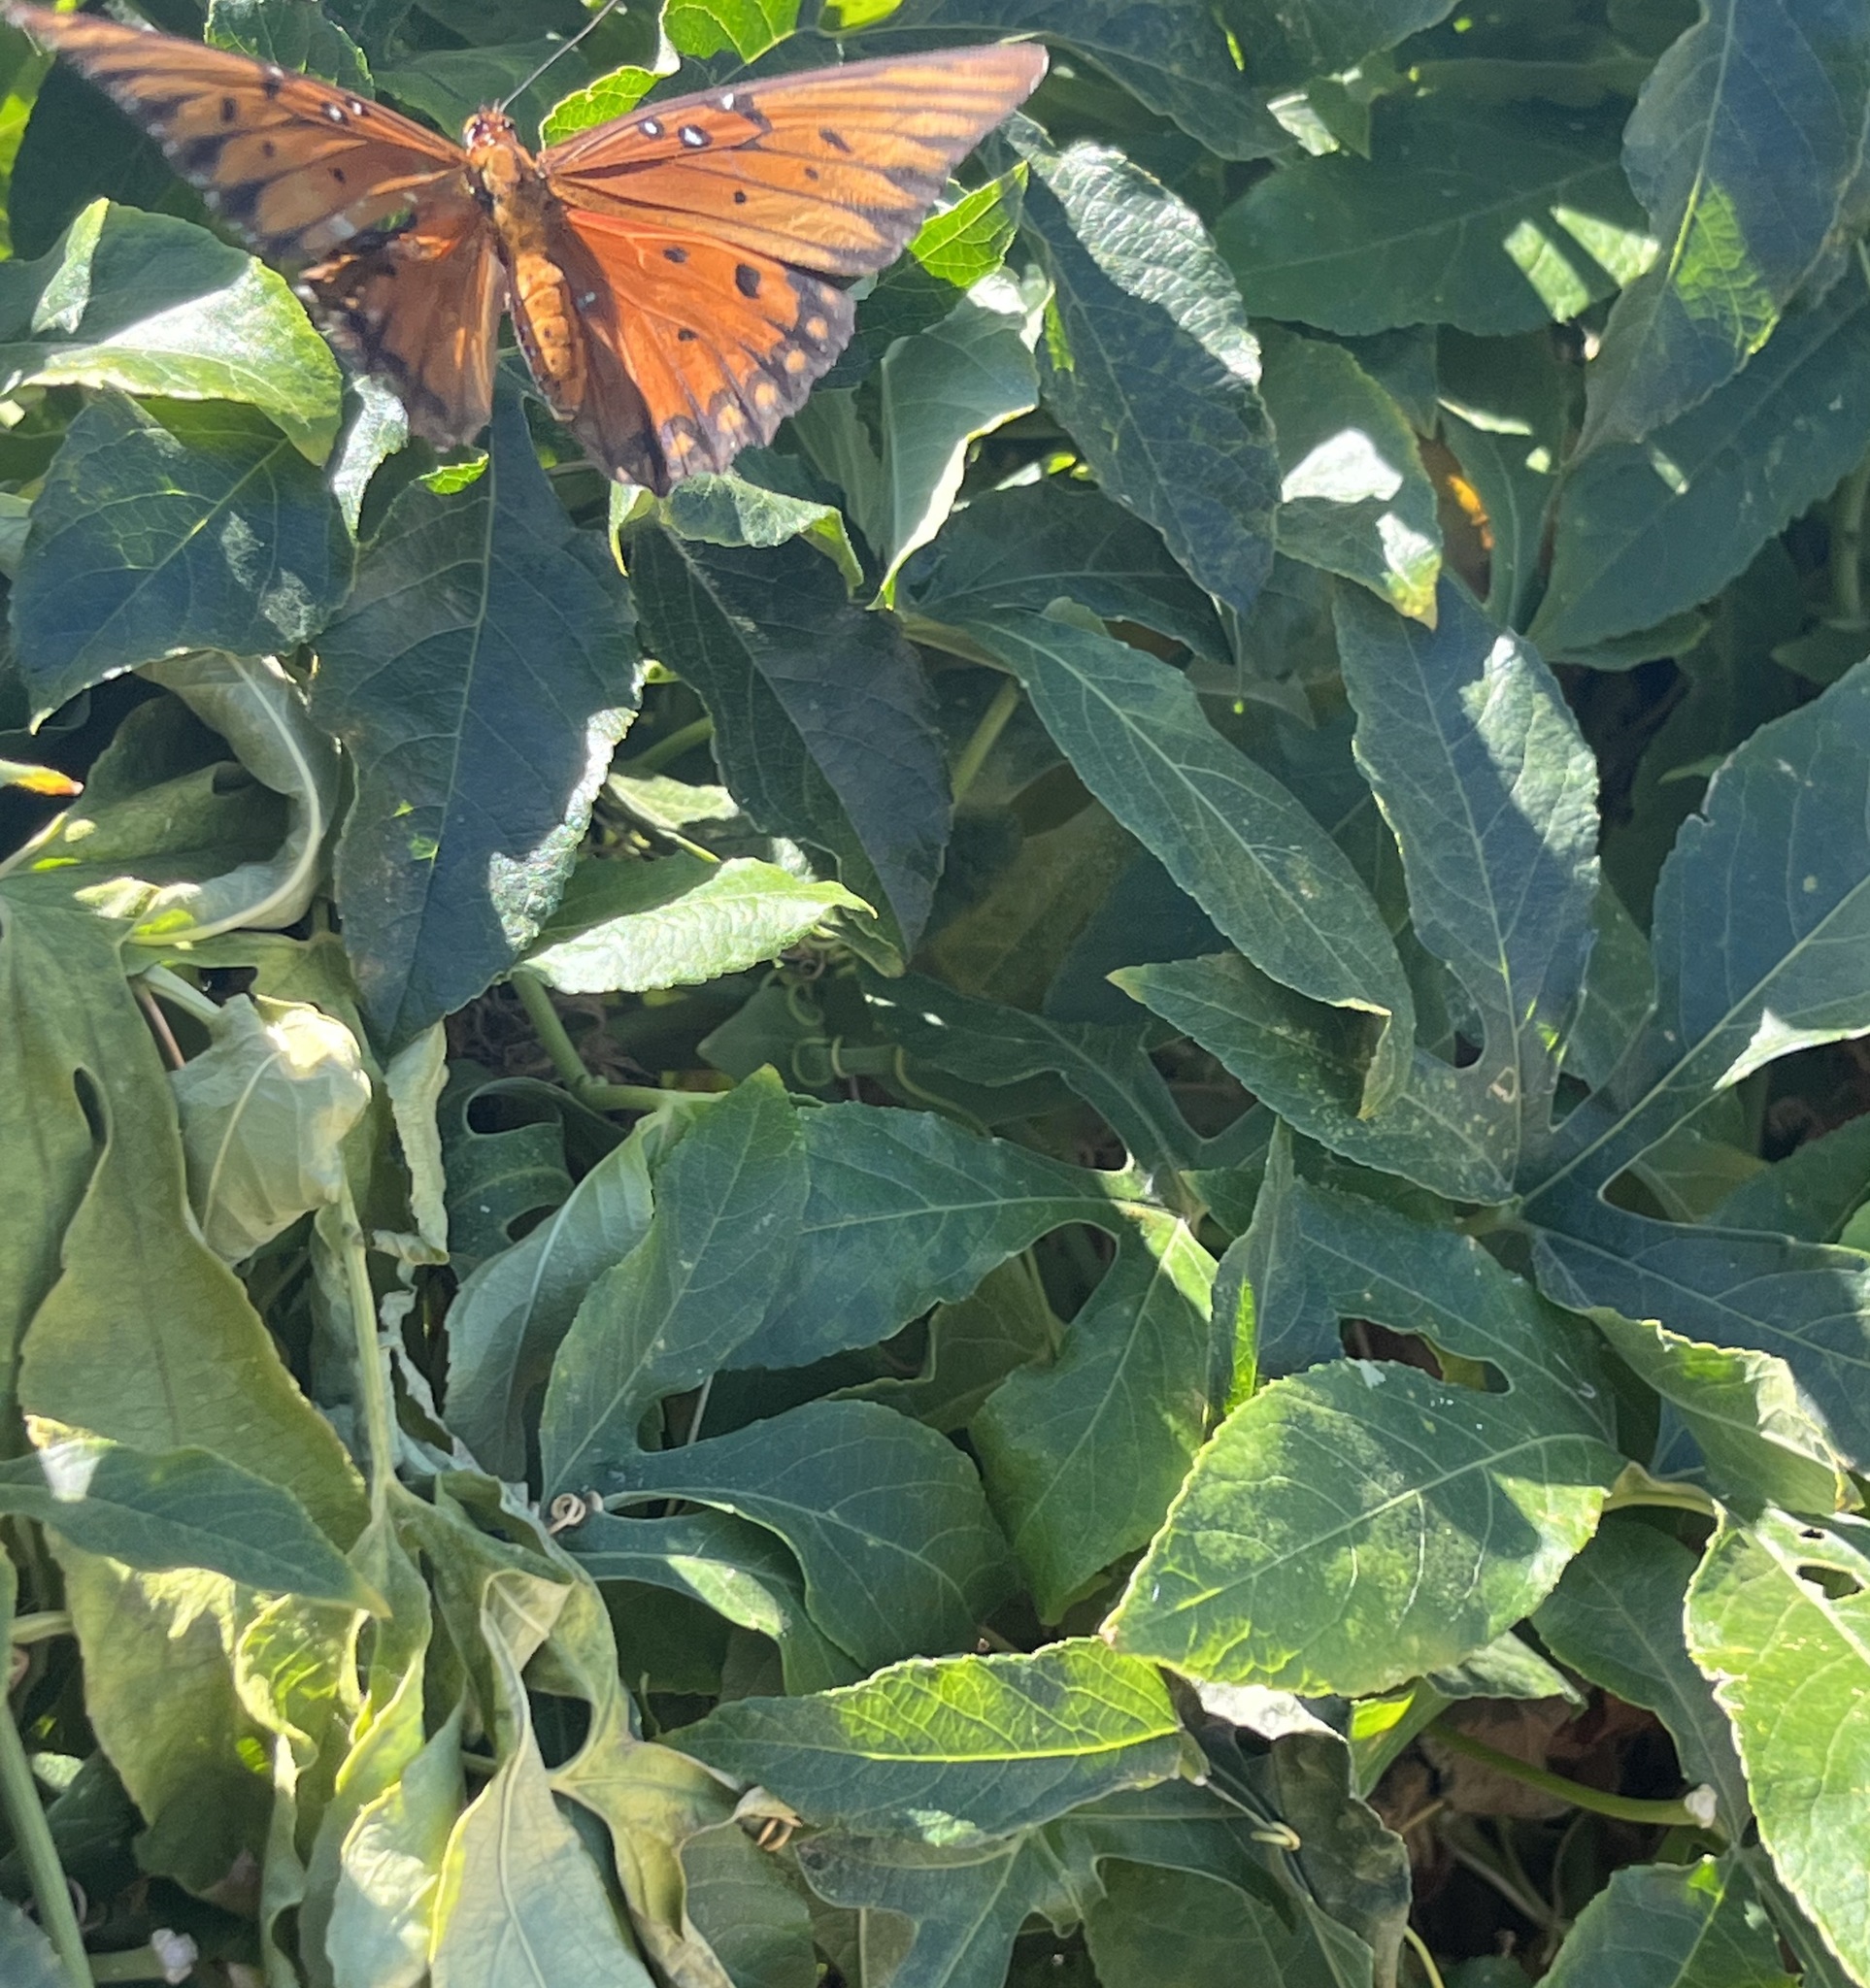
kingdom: Animalia
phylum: Arthropoda
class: Insecta
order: Lepidoptera
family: Nymphalidae
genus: Dione
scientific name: Dione vanillae
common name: Gulf fritillary
